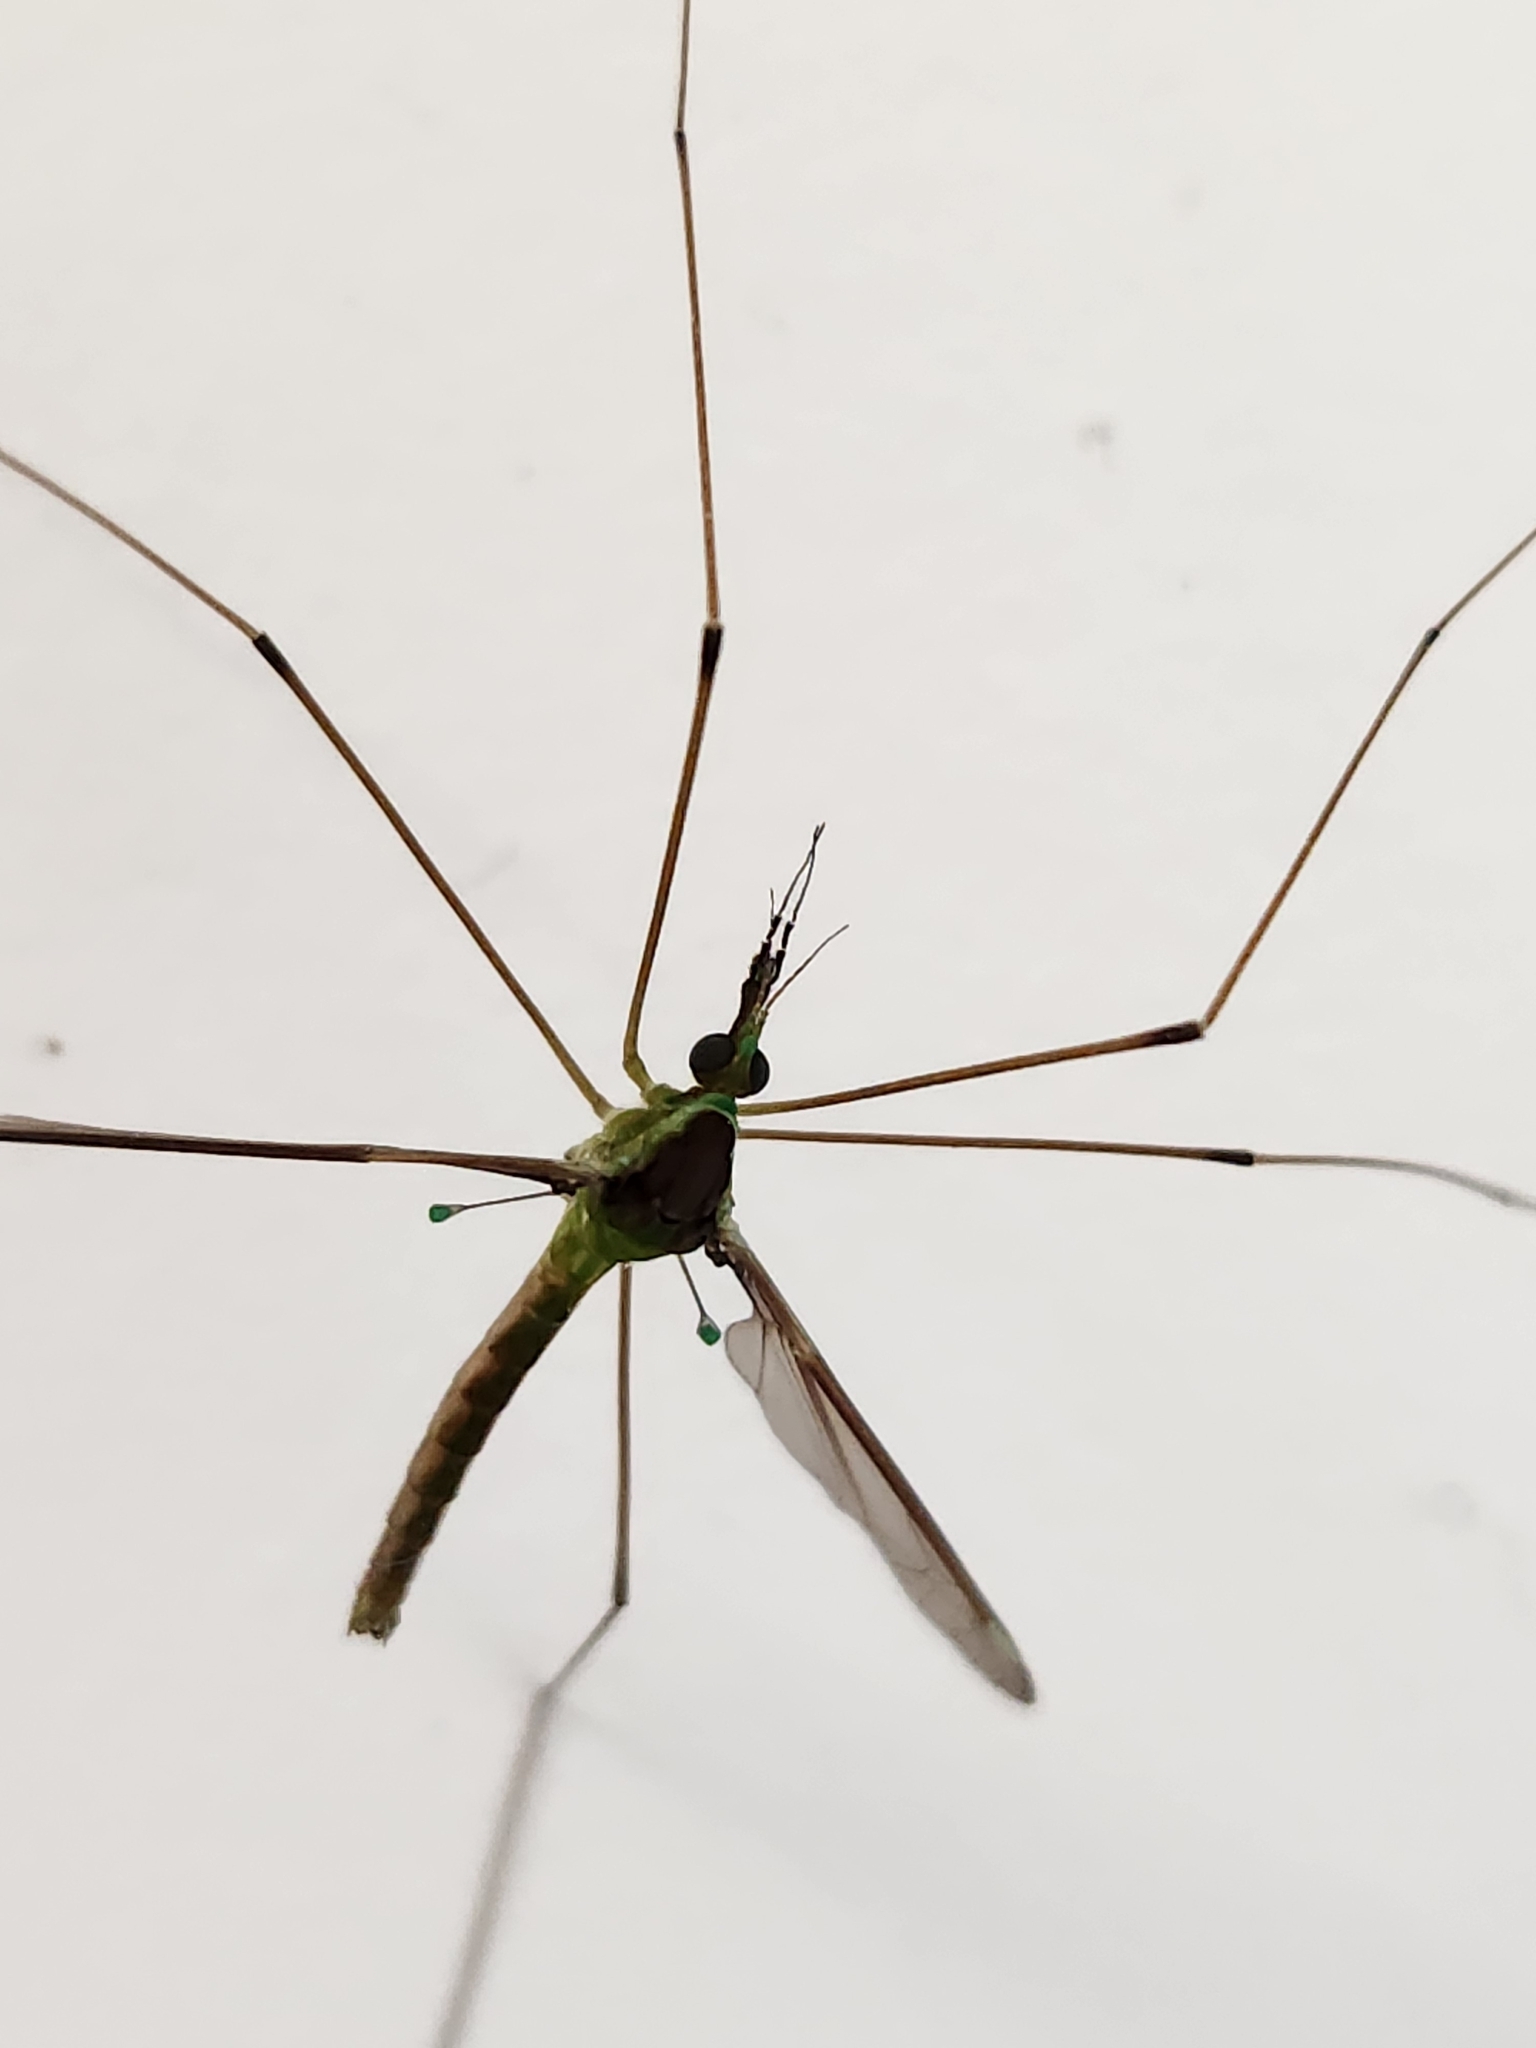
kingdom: Animalia
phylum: Arthropoda
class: Insecta
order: Diptera
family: Tipulidae
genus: Leptotarsus
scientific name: Leptotarsus albistigma
